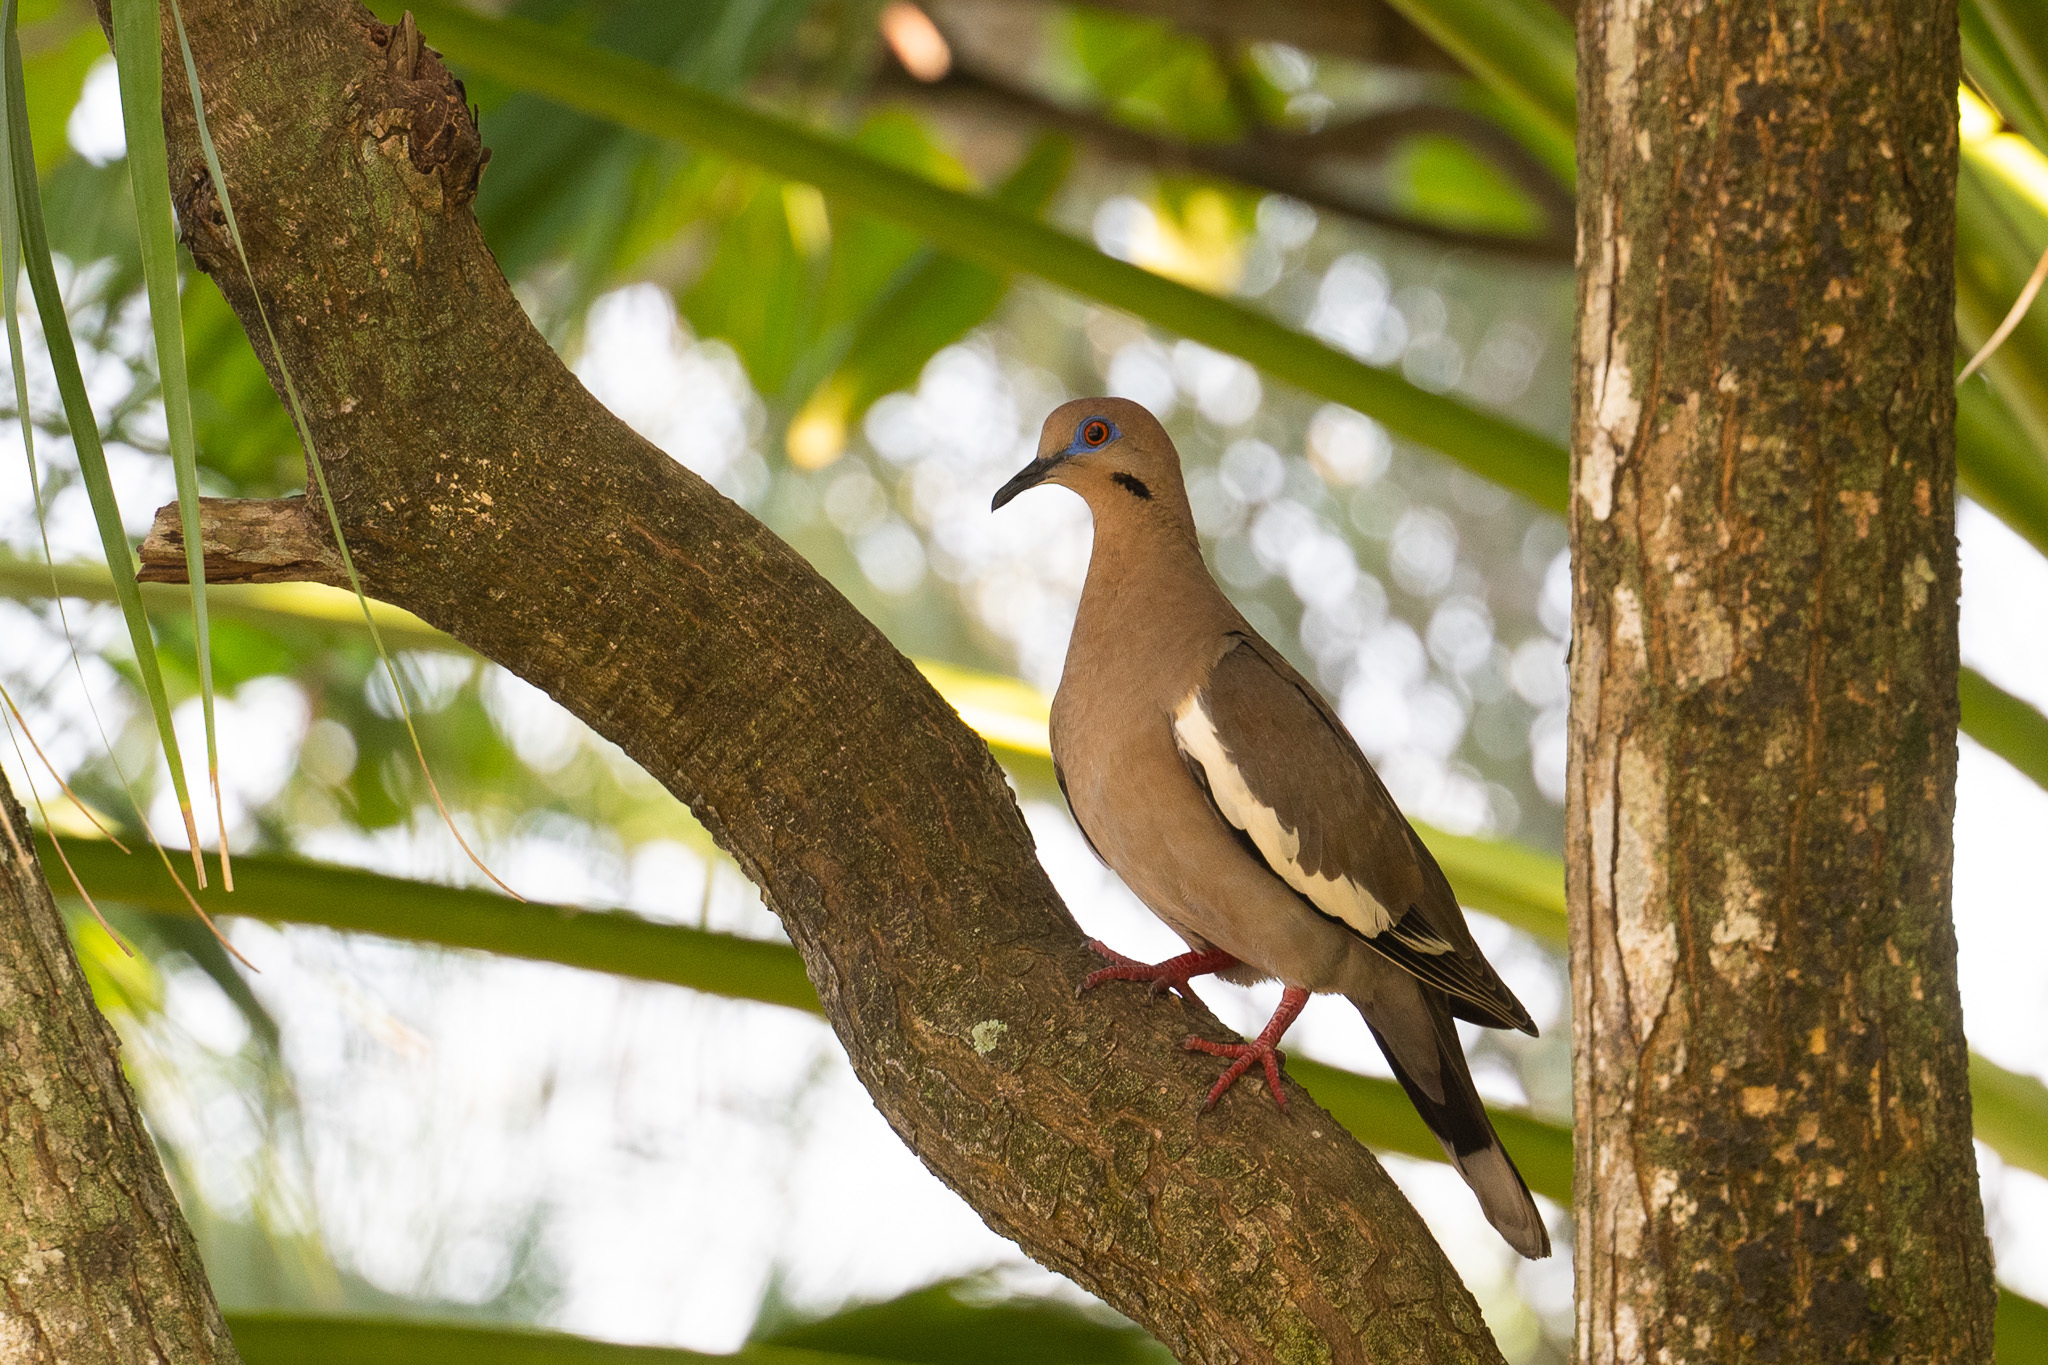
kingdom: Animalia
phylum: Chordata
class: Aves
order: Columbiformes
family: Columbidae
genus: Zenaida
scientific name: Zenaida asiatica
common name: White-winged dove
